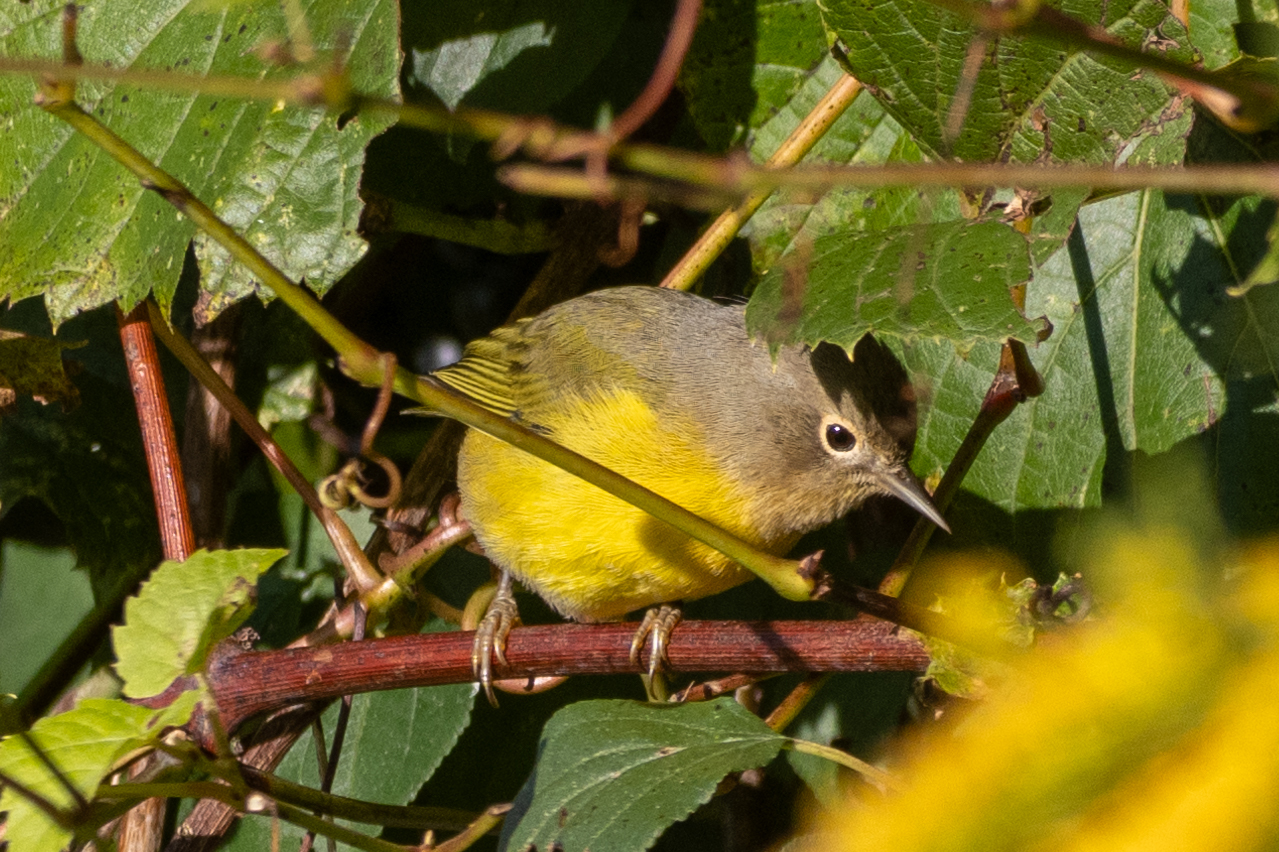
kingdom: Animalia
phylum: Chordata
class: Aves
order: Passeriformes
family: Parulidae
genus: Leiothlypis
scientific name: Leiothlypis ruficapilla
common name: Nashville warbler
